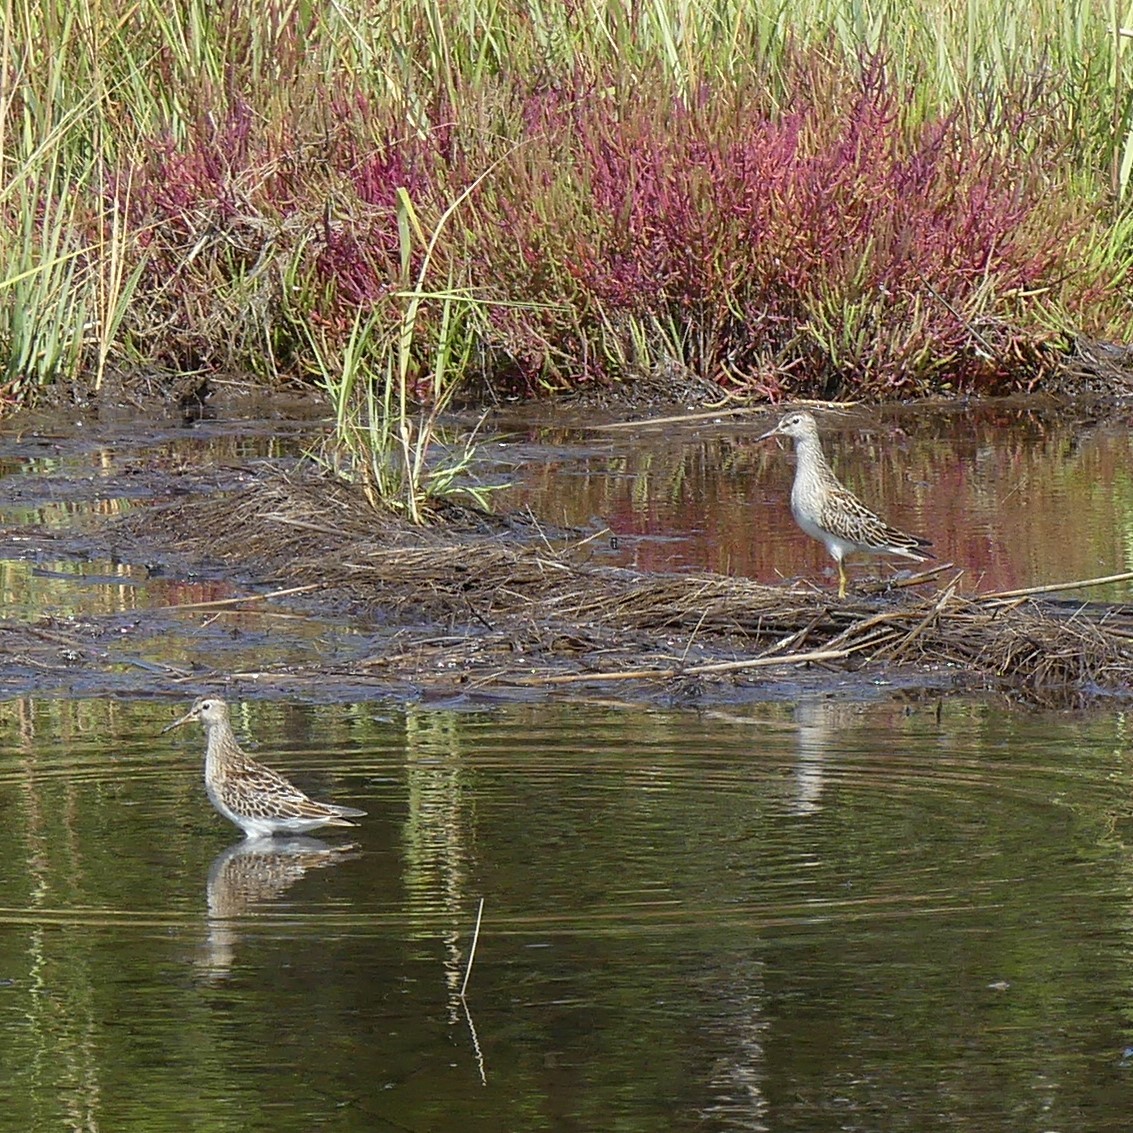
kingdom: Animalia
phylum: Chordata
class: Aves
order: Charadriiformes
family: Scolopacidae
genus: Calidris
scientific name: Calidris melanotos
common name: Pectoral sandpiper
